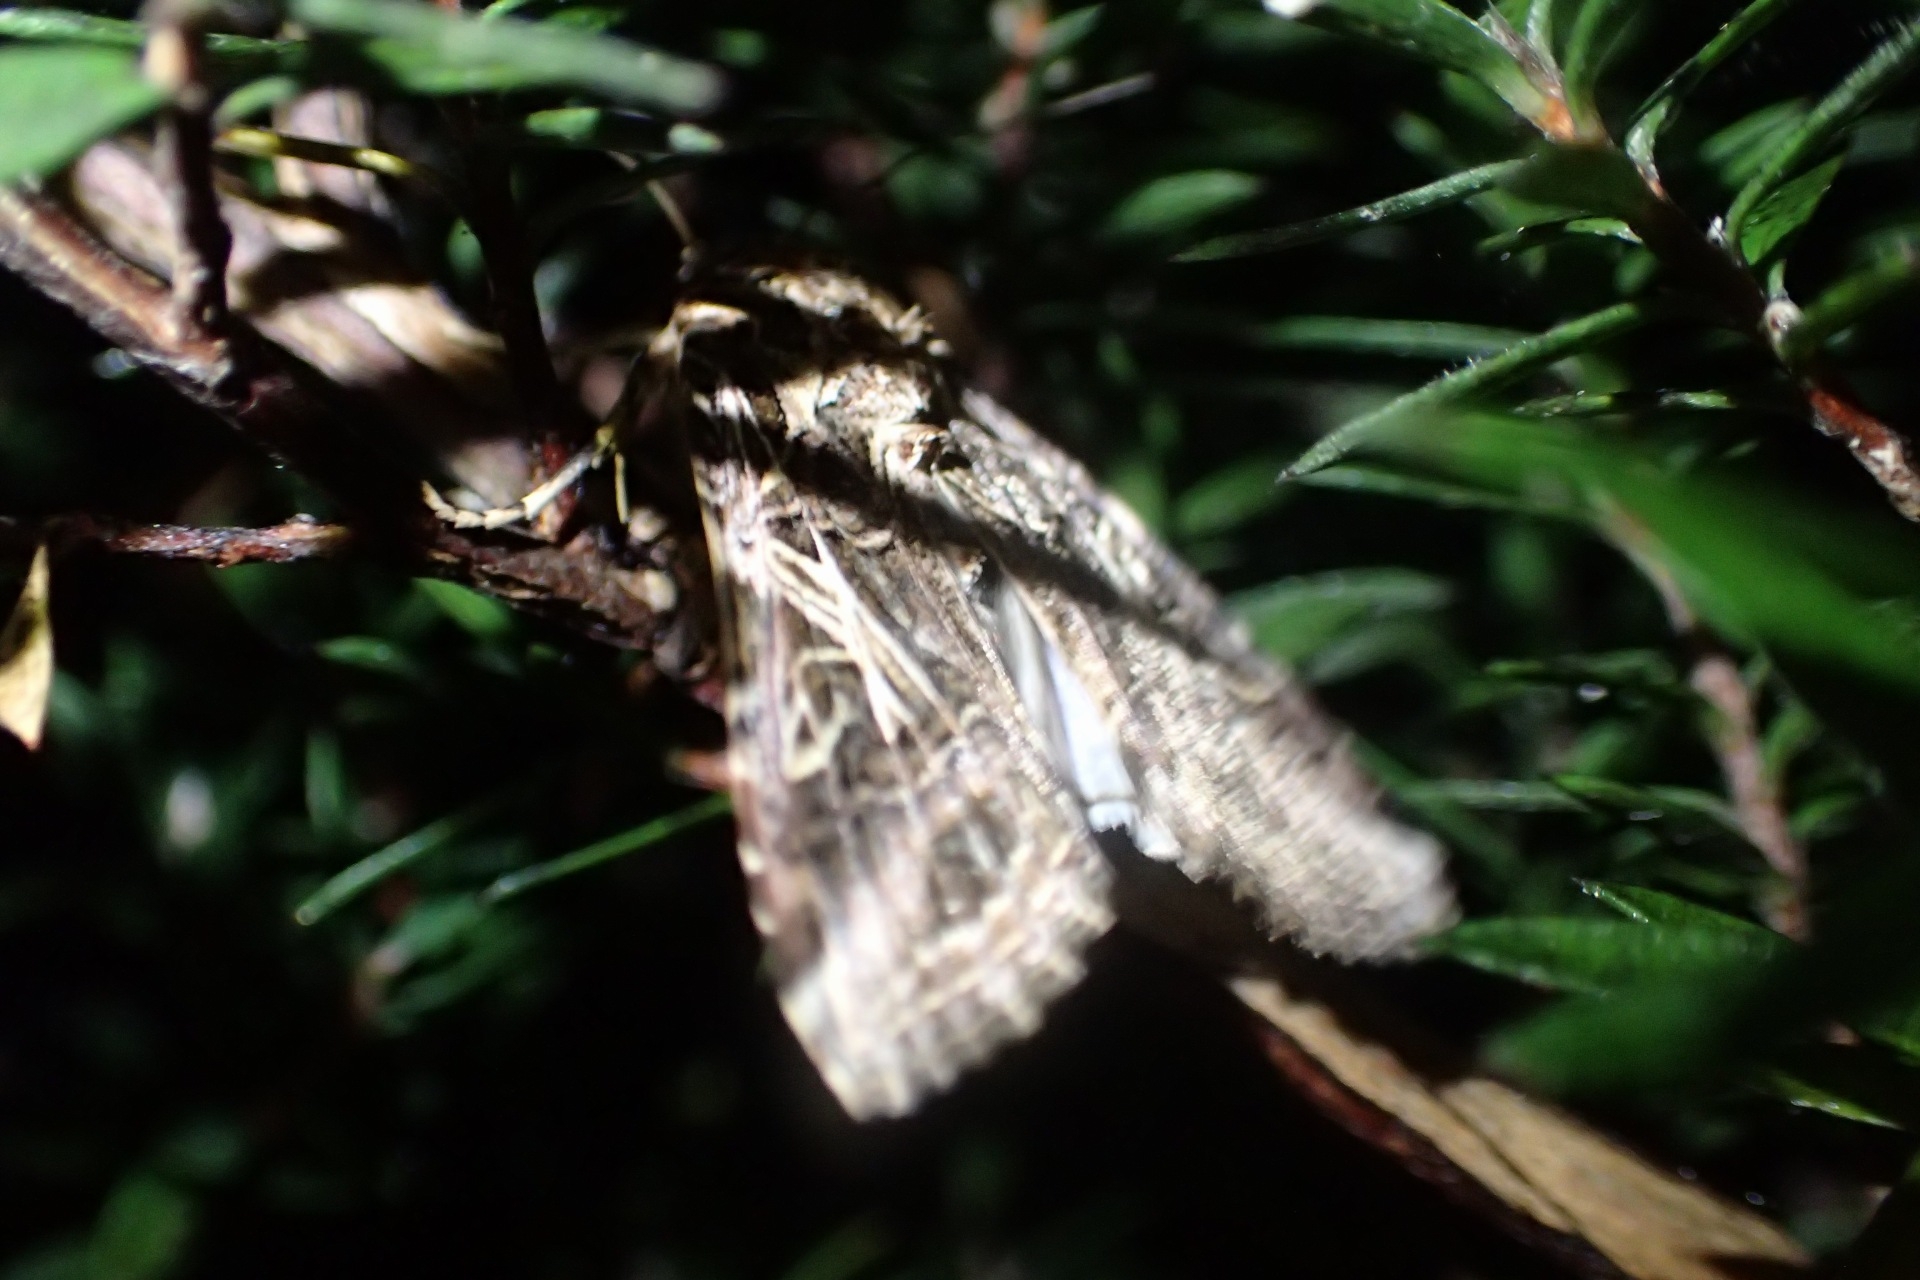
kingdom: Animalia
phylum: Arthropoda
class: Insecta
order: Lepidoptera
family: Noctuidae
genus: Spodoptera
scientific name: Spodoptera litura
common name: Asian cotton leafworm
